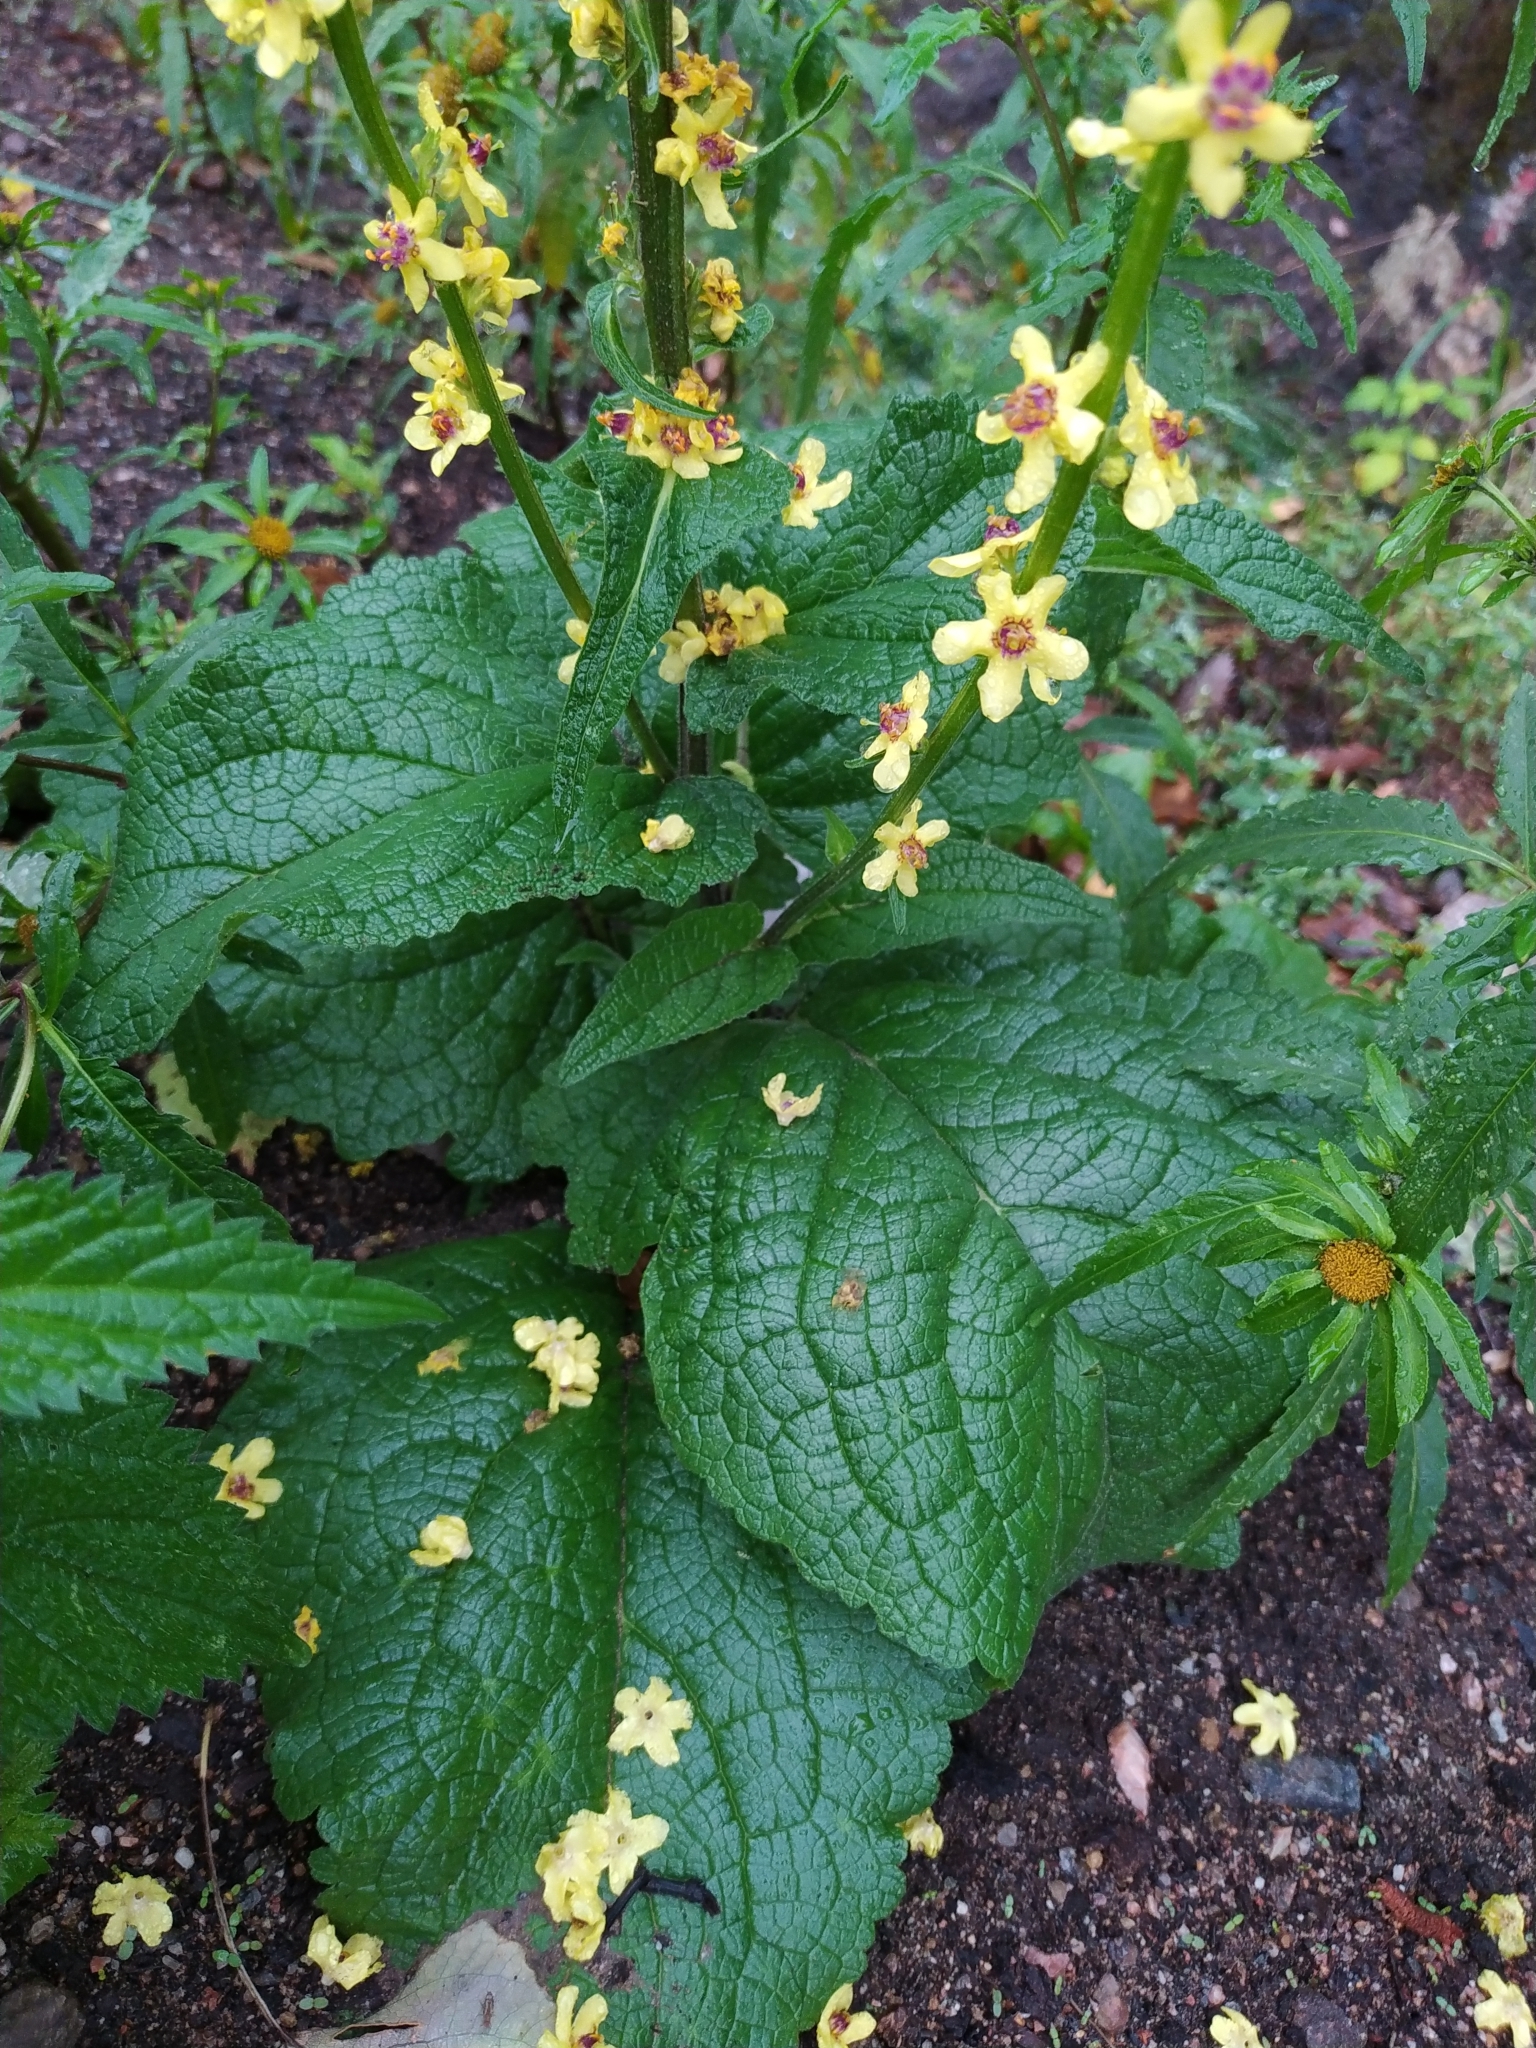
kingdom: Plantae
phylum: Tracheophyta
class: Magnoliopsida
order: Lamiales
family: Scrophulariaceae
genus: Verbascum
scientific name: Verbascum nigrum
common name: Dark mullein
